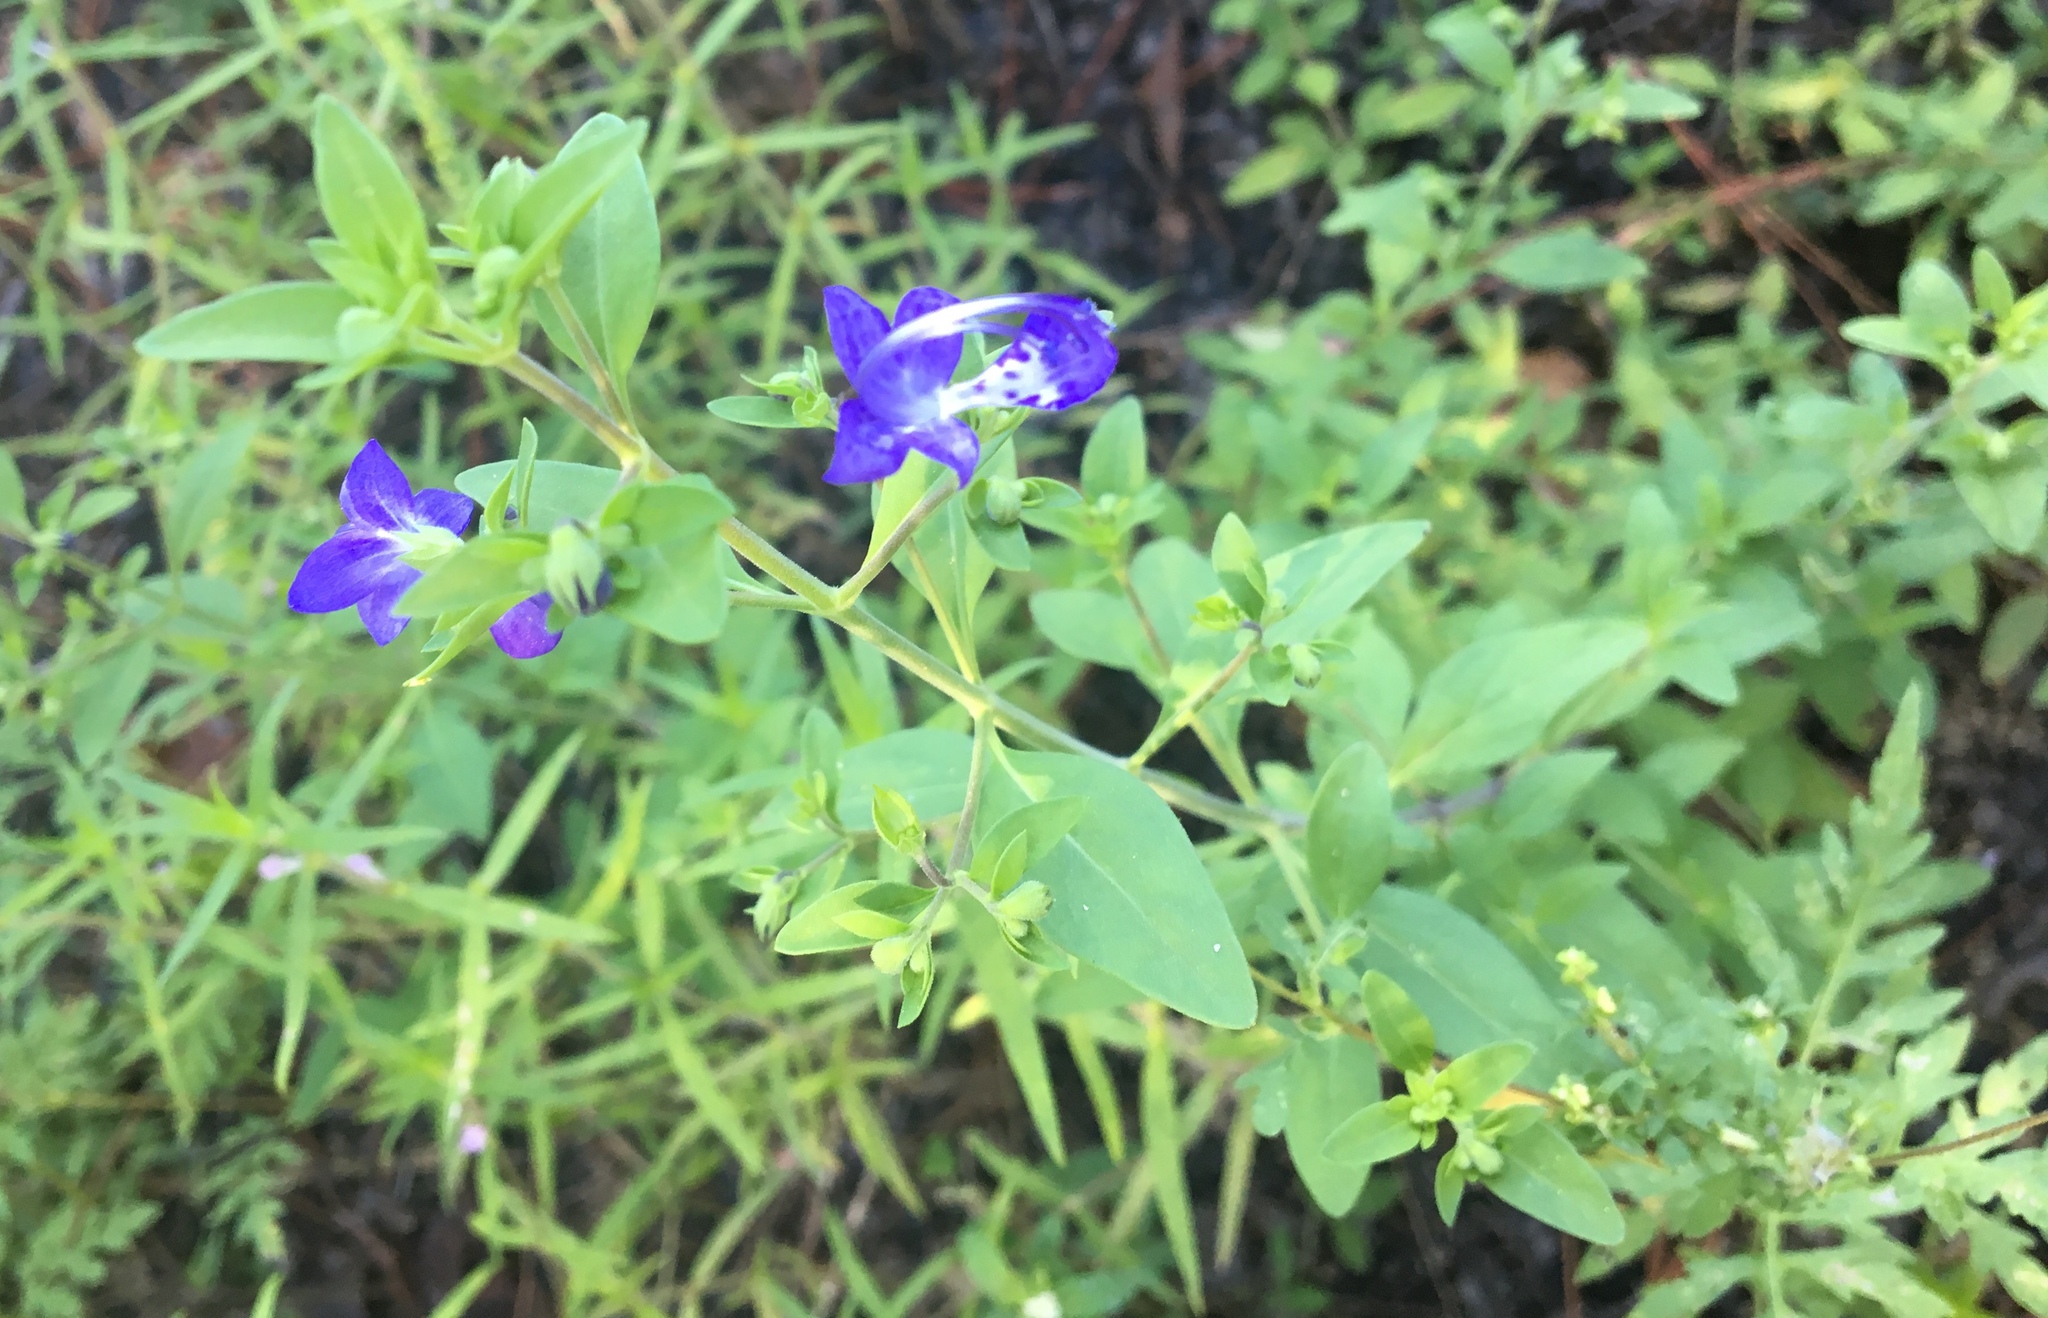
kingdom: Plantae
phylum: Tracheophyta
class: Magnoliopsida
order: Lamiales
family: Lamiaceae
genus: Trichostema
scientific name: Trichostema fruticosum
